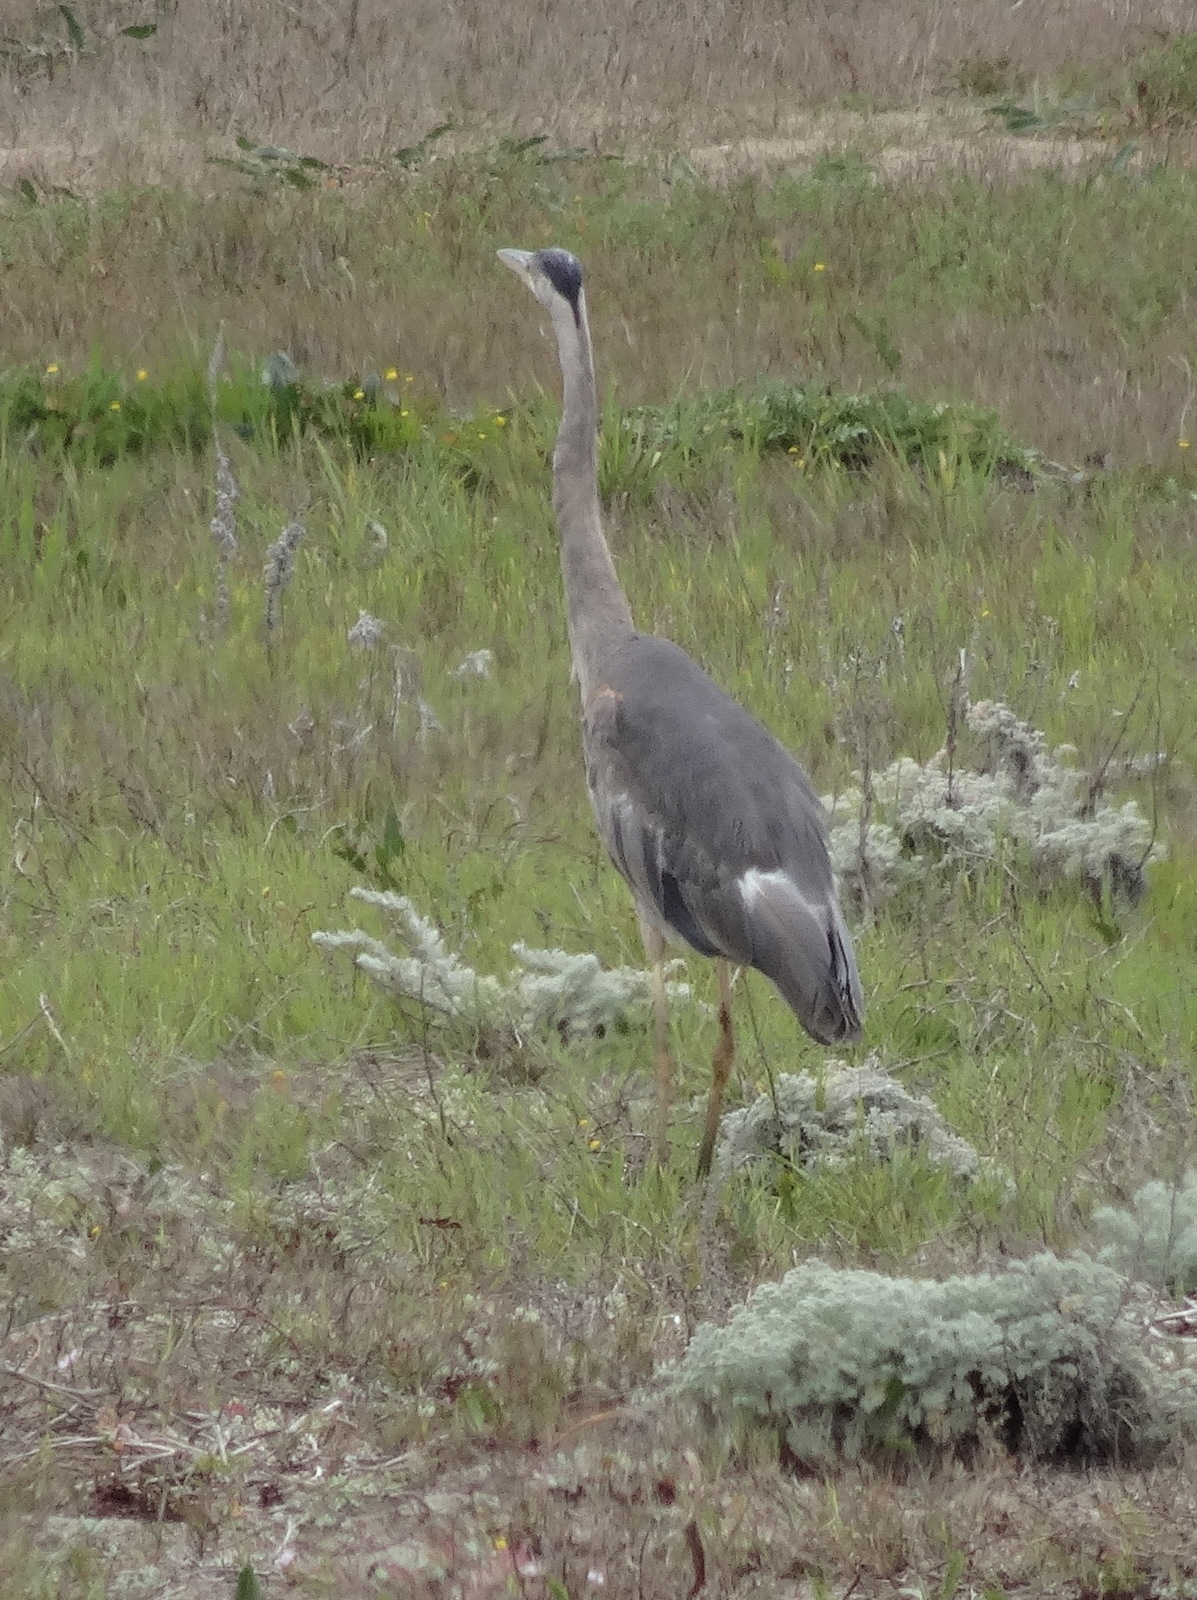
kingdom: Animalia
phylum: Chordata
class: Aves
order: Pelecaniformes
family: Ardeidae
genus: Ardea
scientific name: Ardea herodias
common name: Great blue heron
